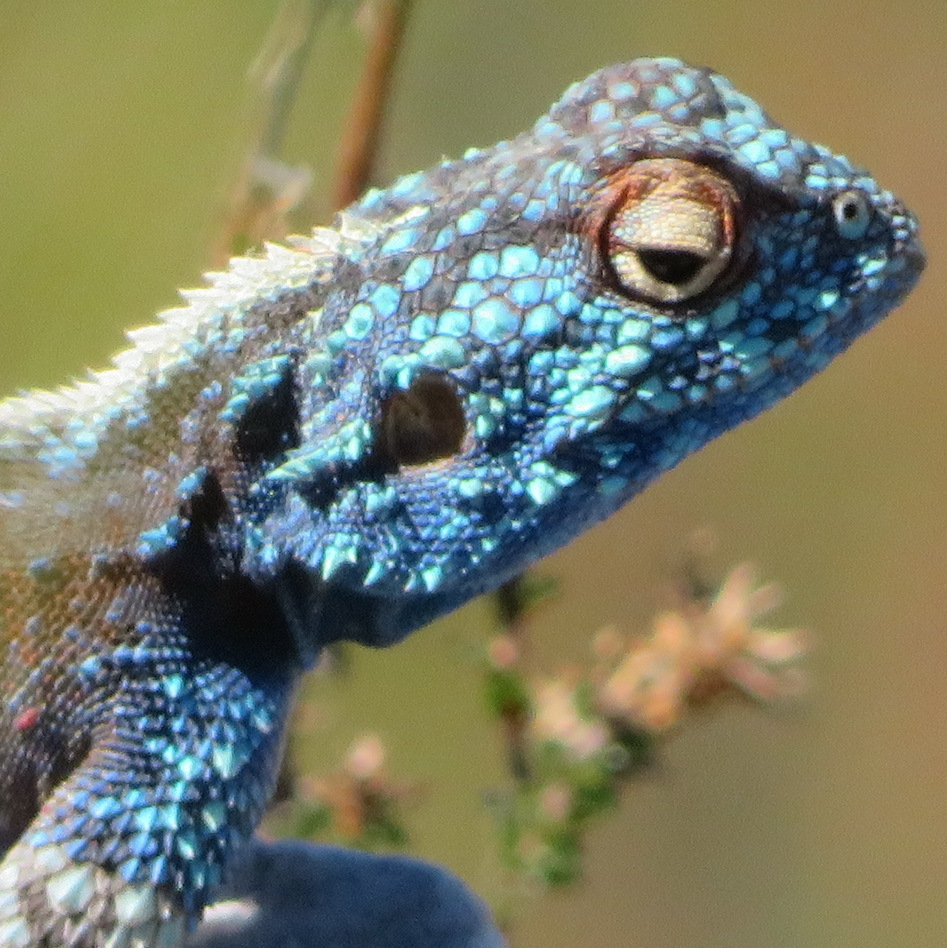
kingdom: Animalia
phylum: Chordata
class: Squamata
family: Agamidae
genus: Agama
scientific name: Agama atra
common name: Southern african rock agama
